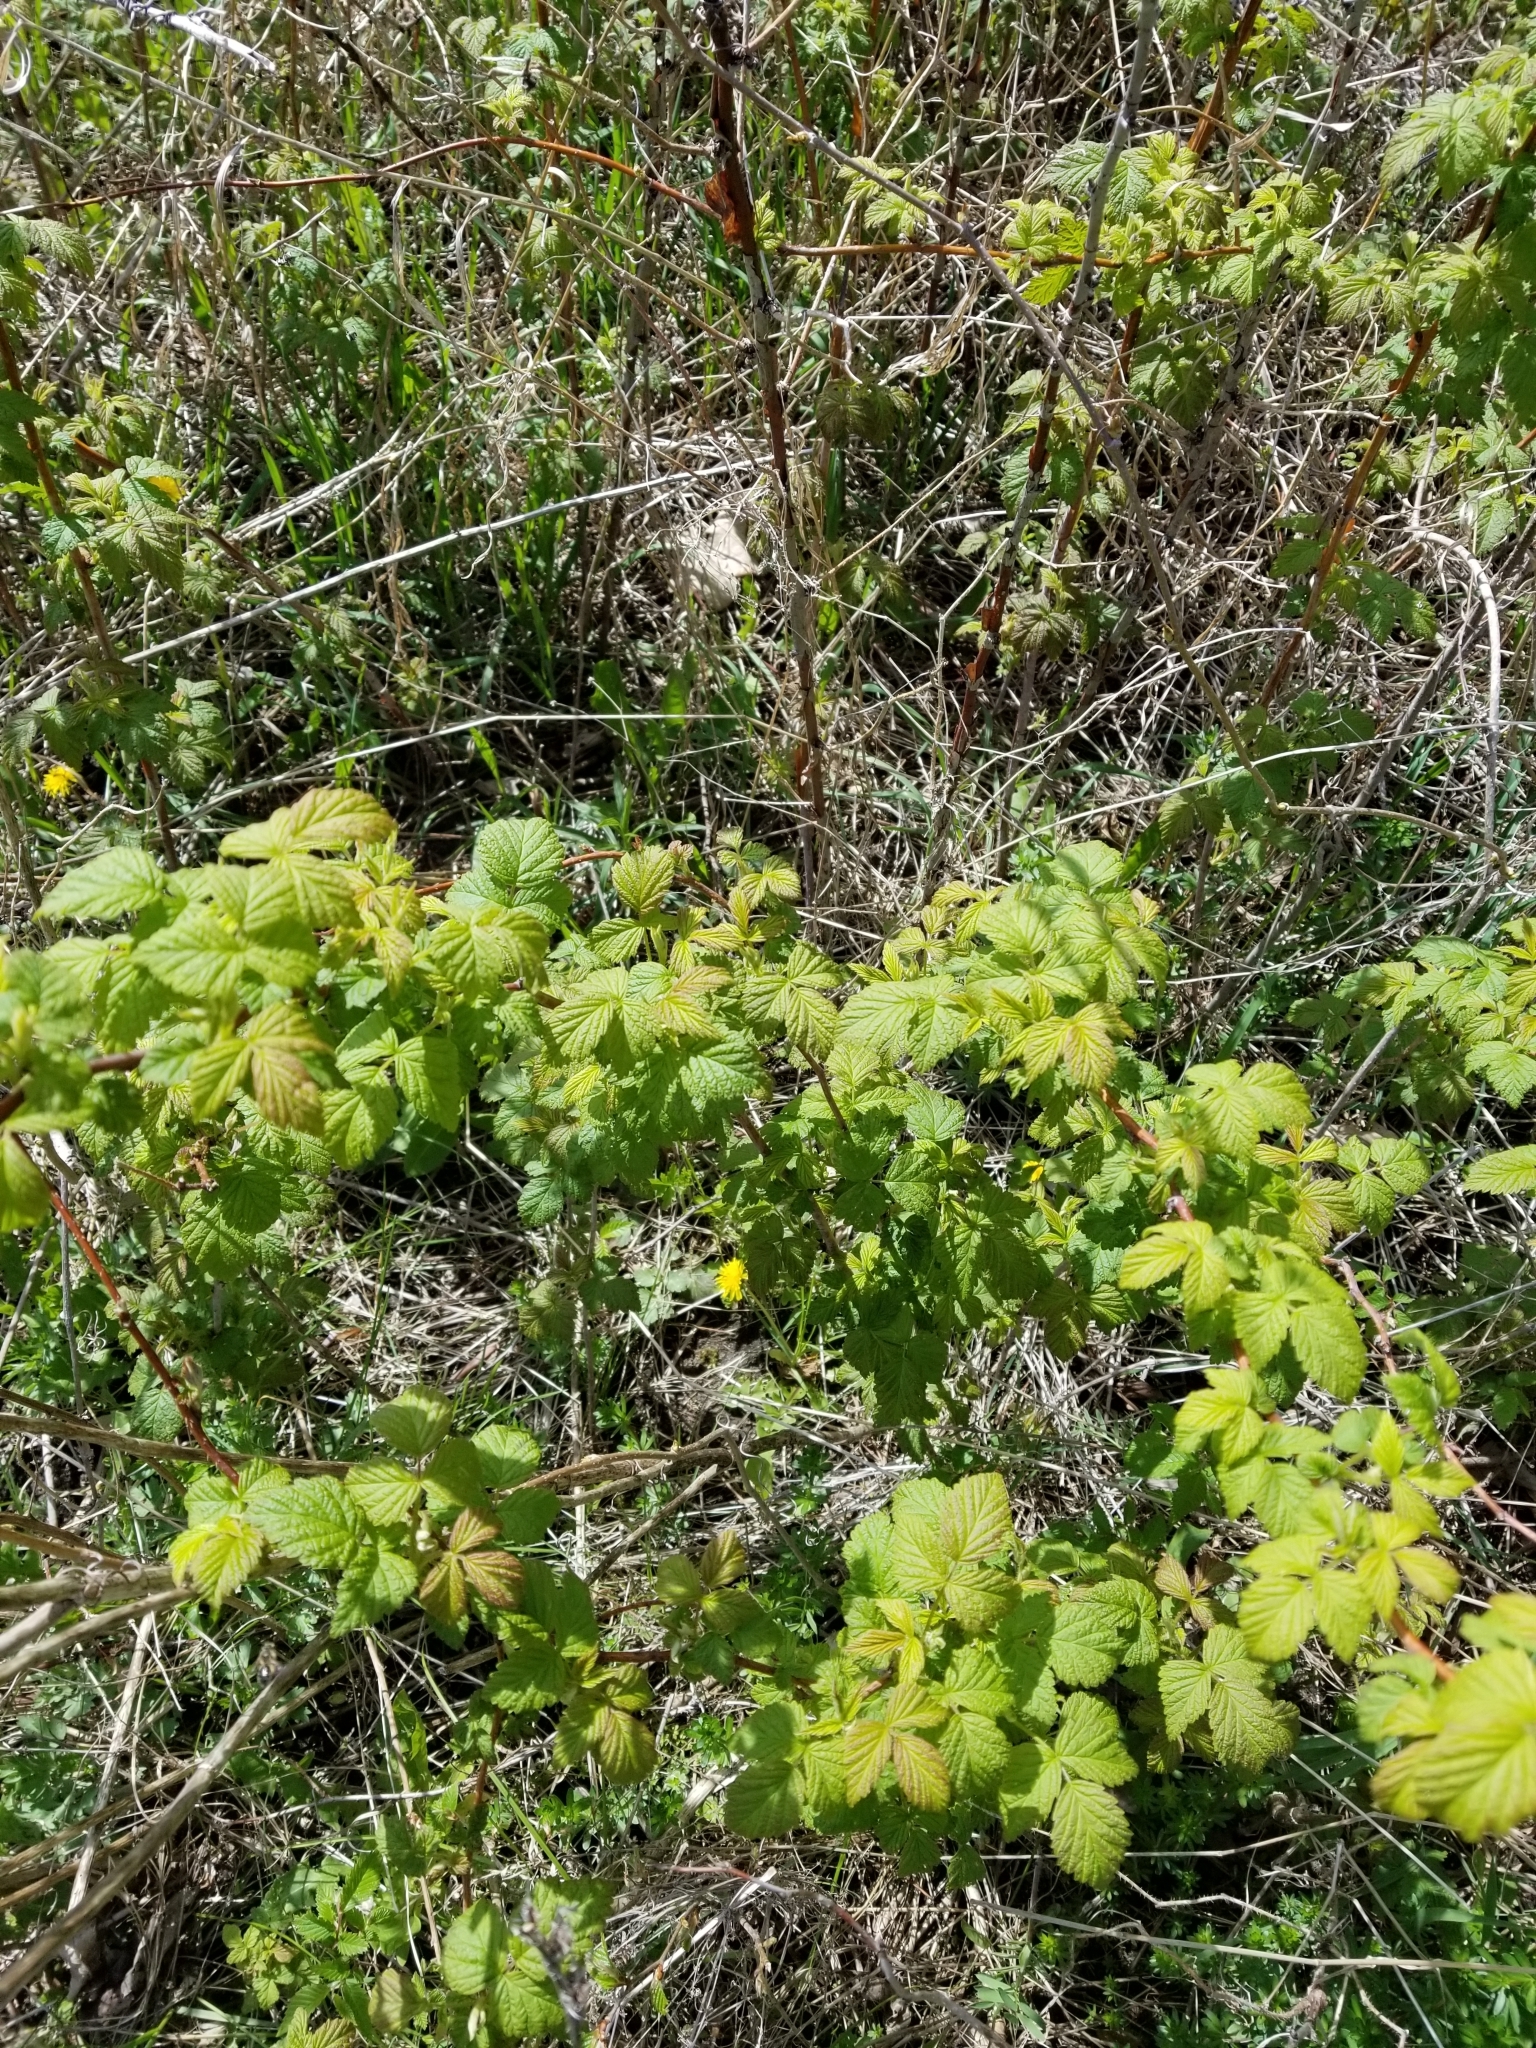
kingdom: Plantae
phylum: Tracheophyta
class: Magnoliopsida
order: Rosales
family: Rosaceae
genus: Rubus
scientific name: Rubus idaeus
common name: Raspberry
